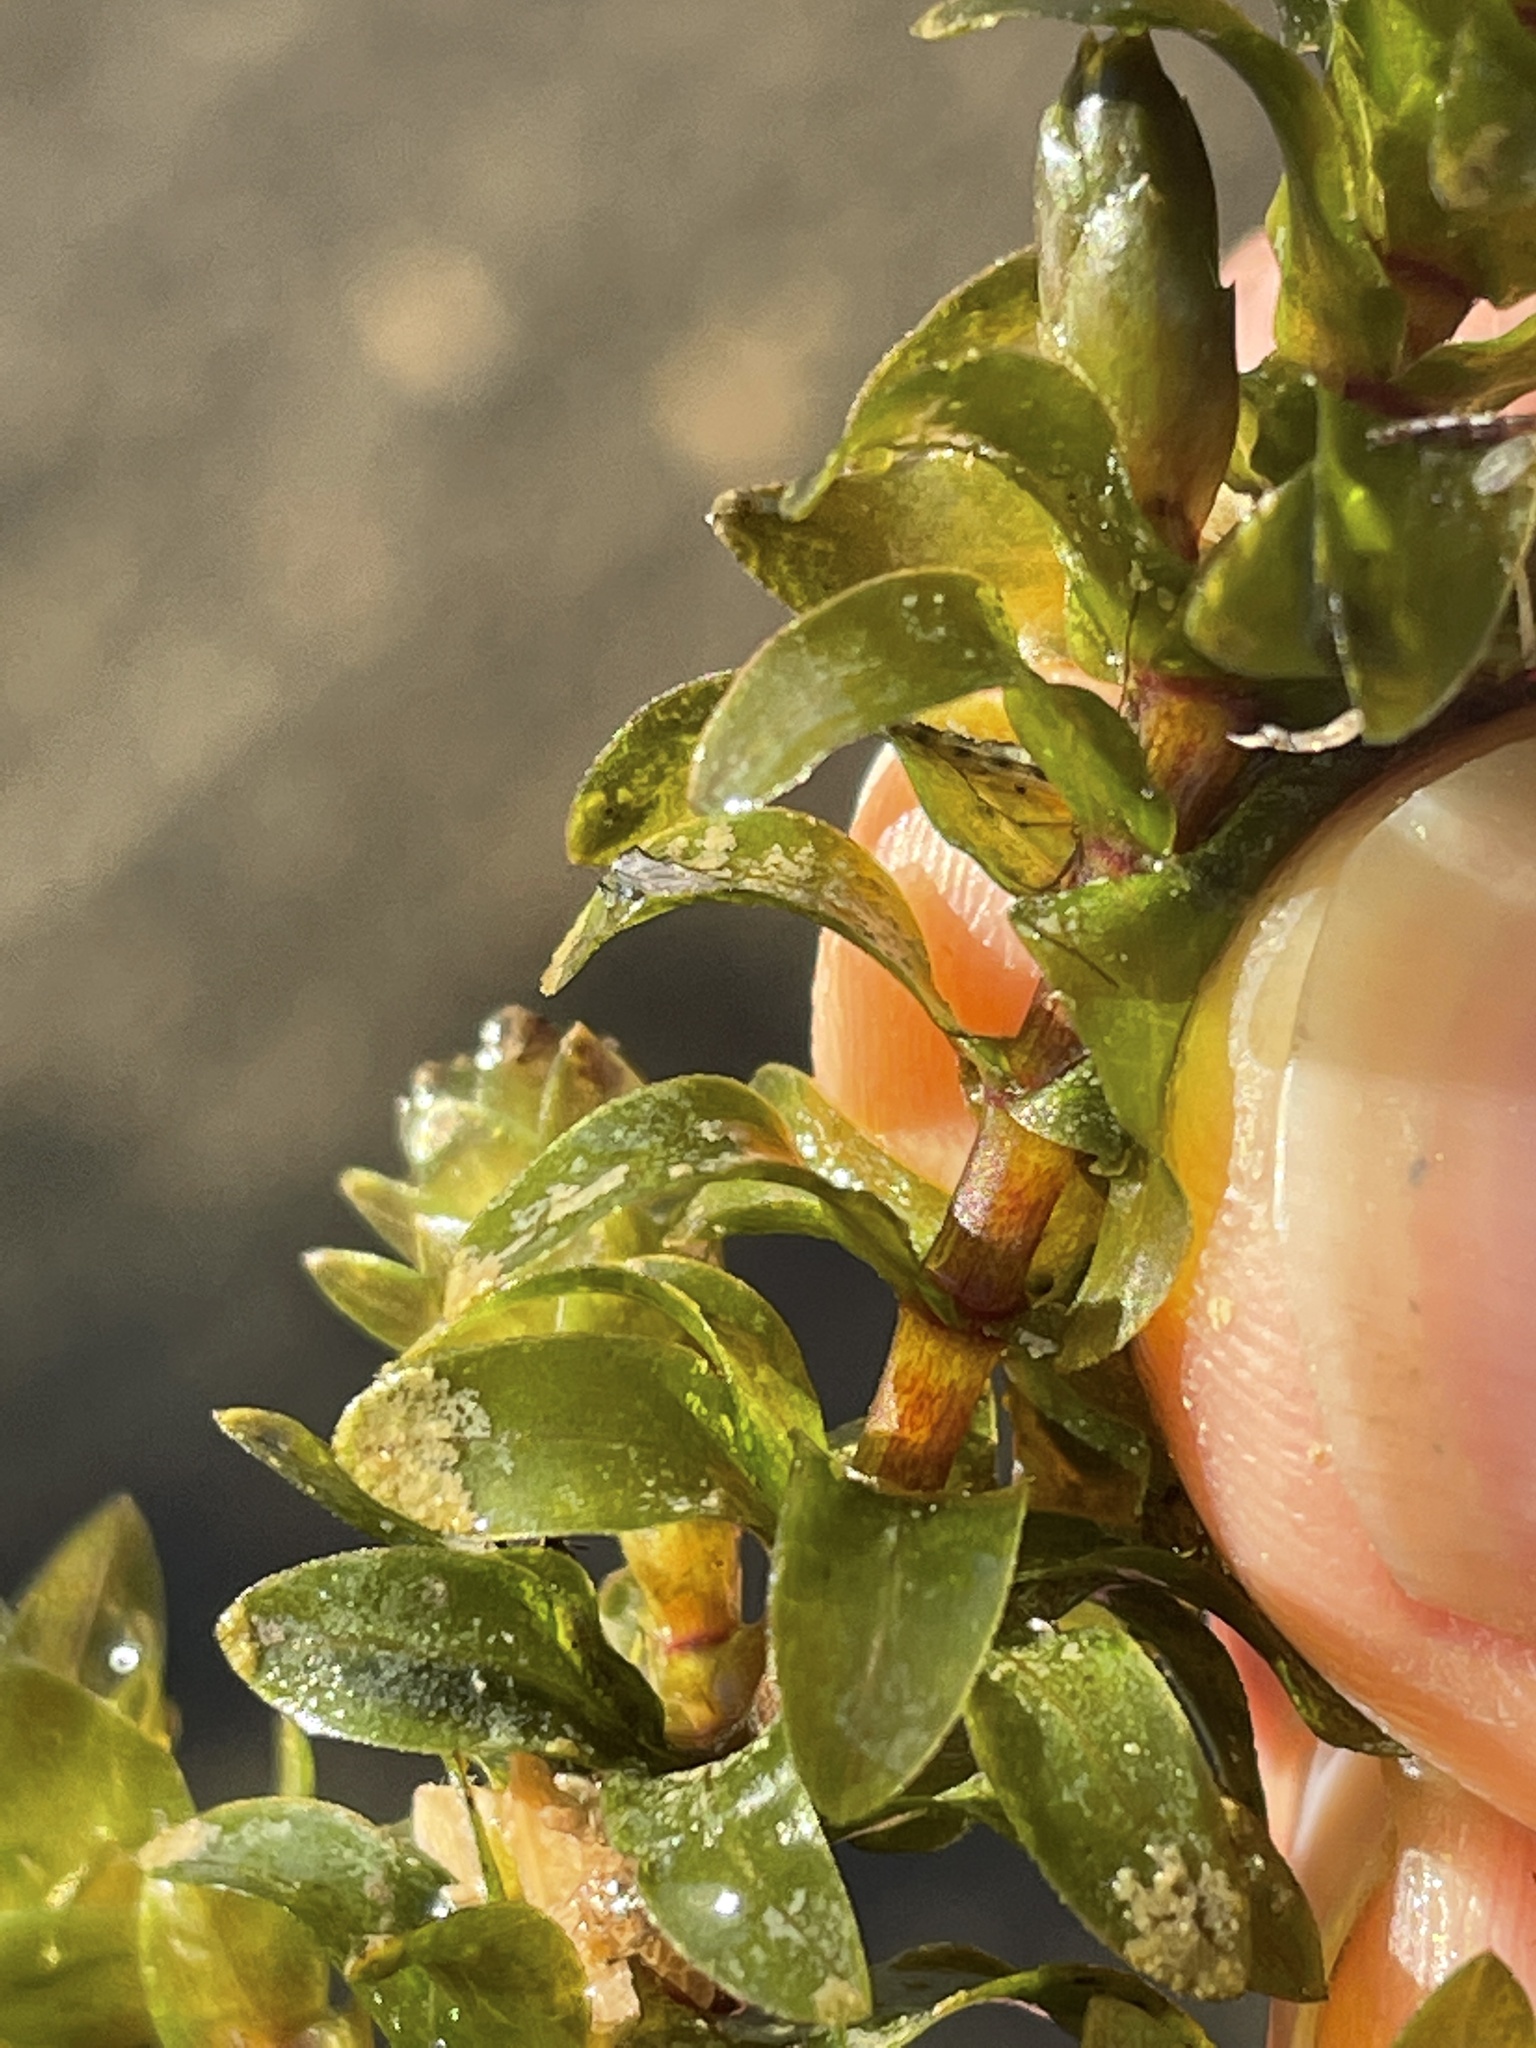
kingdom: Plantae
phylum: Tracheophyta
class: Liliopsida
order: Alismatales
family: Hydrocharitaceae
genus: Elodea
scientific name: Elodea canadensis
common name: Canadian waterweed
